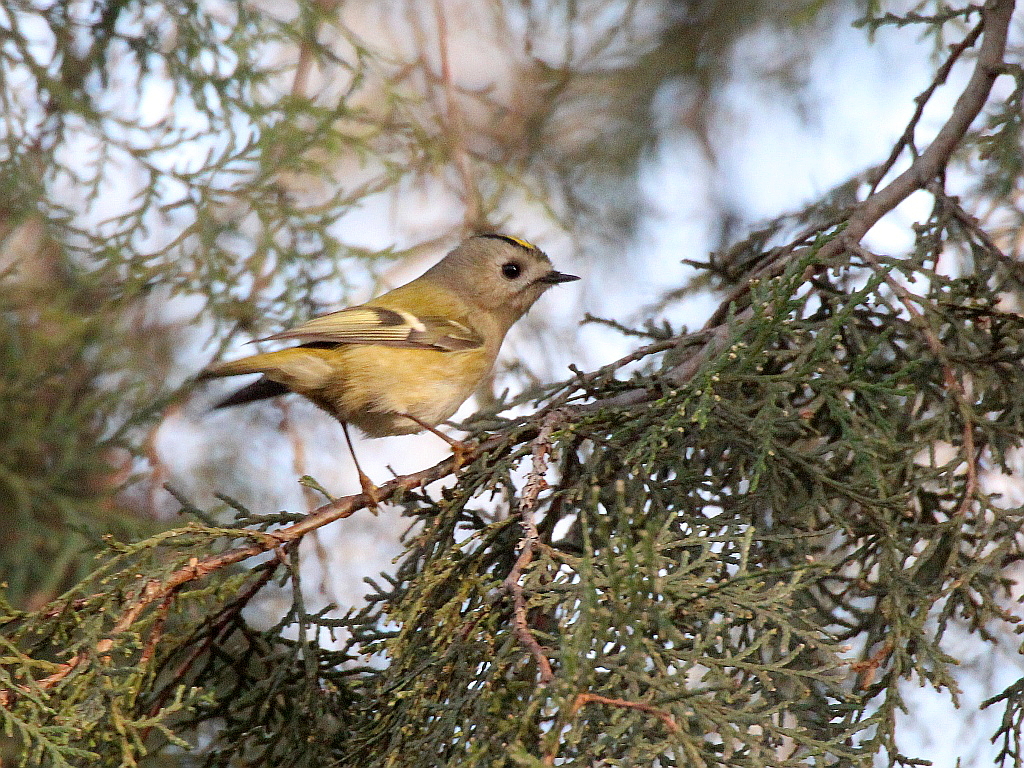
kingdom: Animalia
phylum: Chordata
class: Aves
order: Passeriformes
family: Regulidae
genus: Regulus
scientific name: Regulus regulus
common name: Goldcrest
